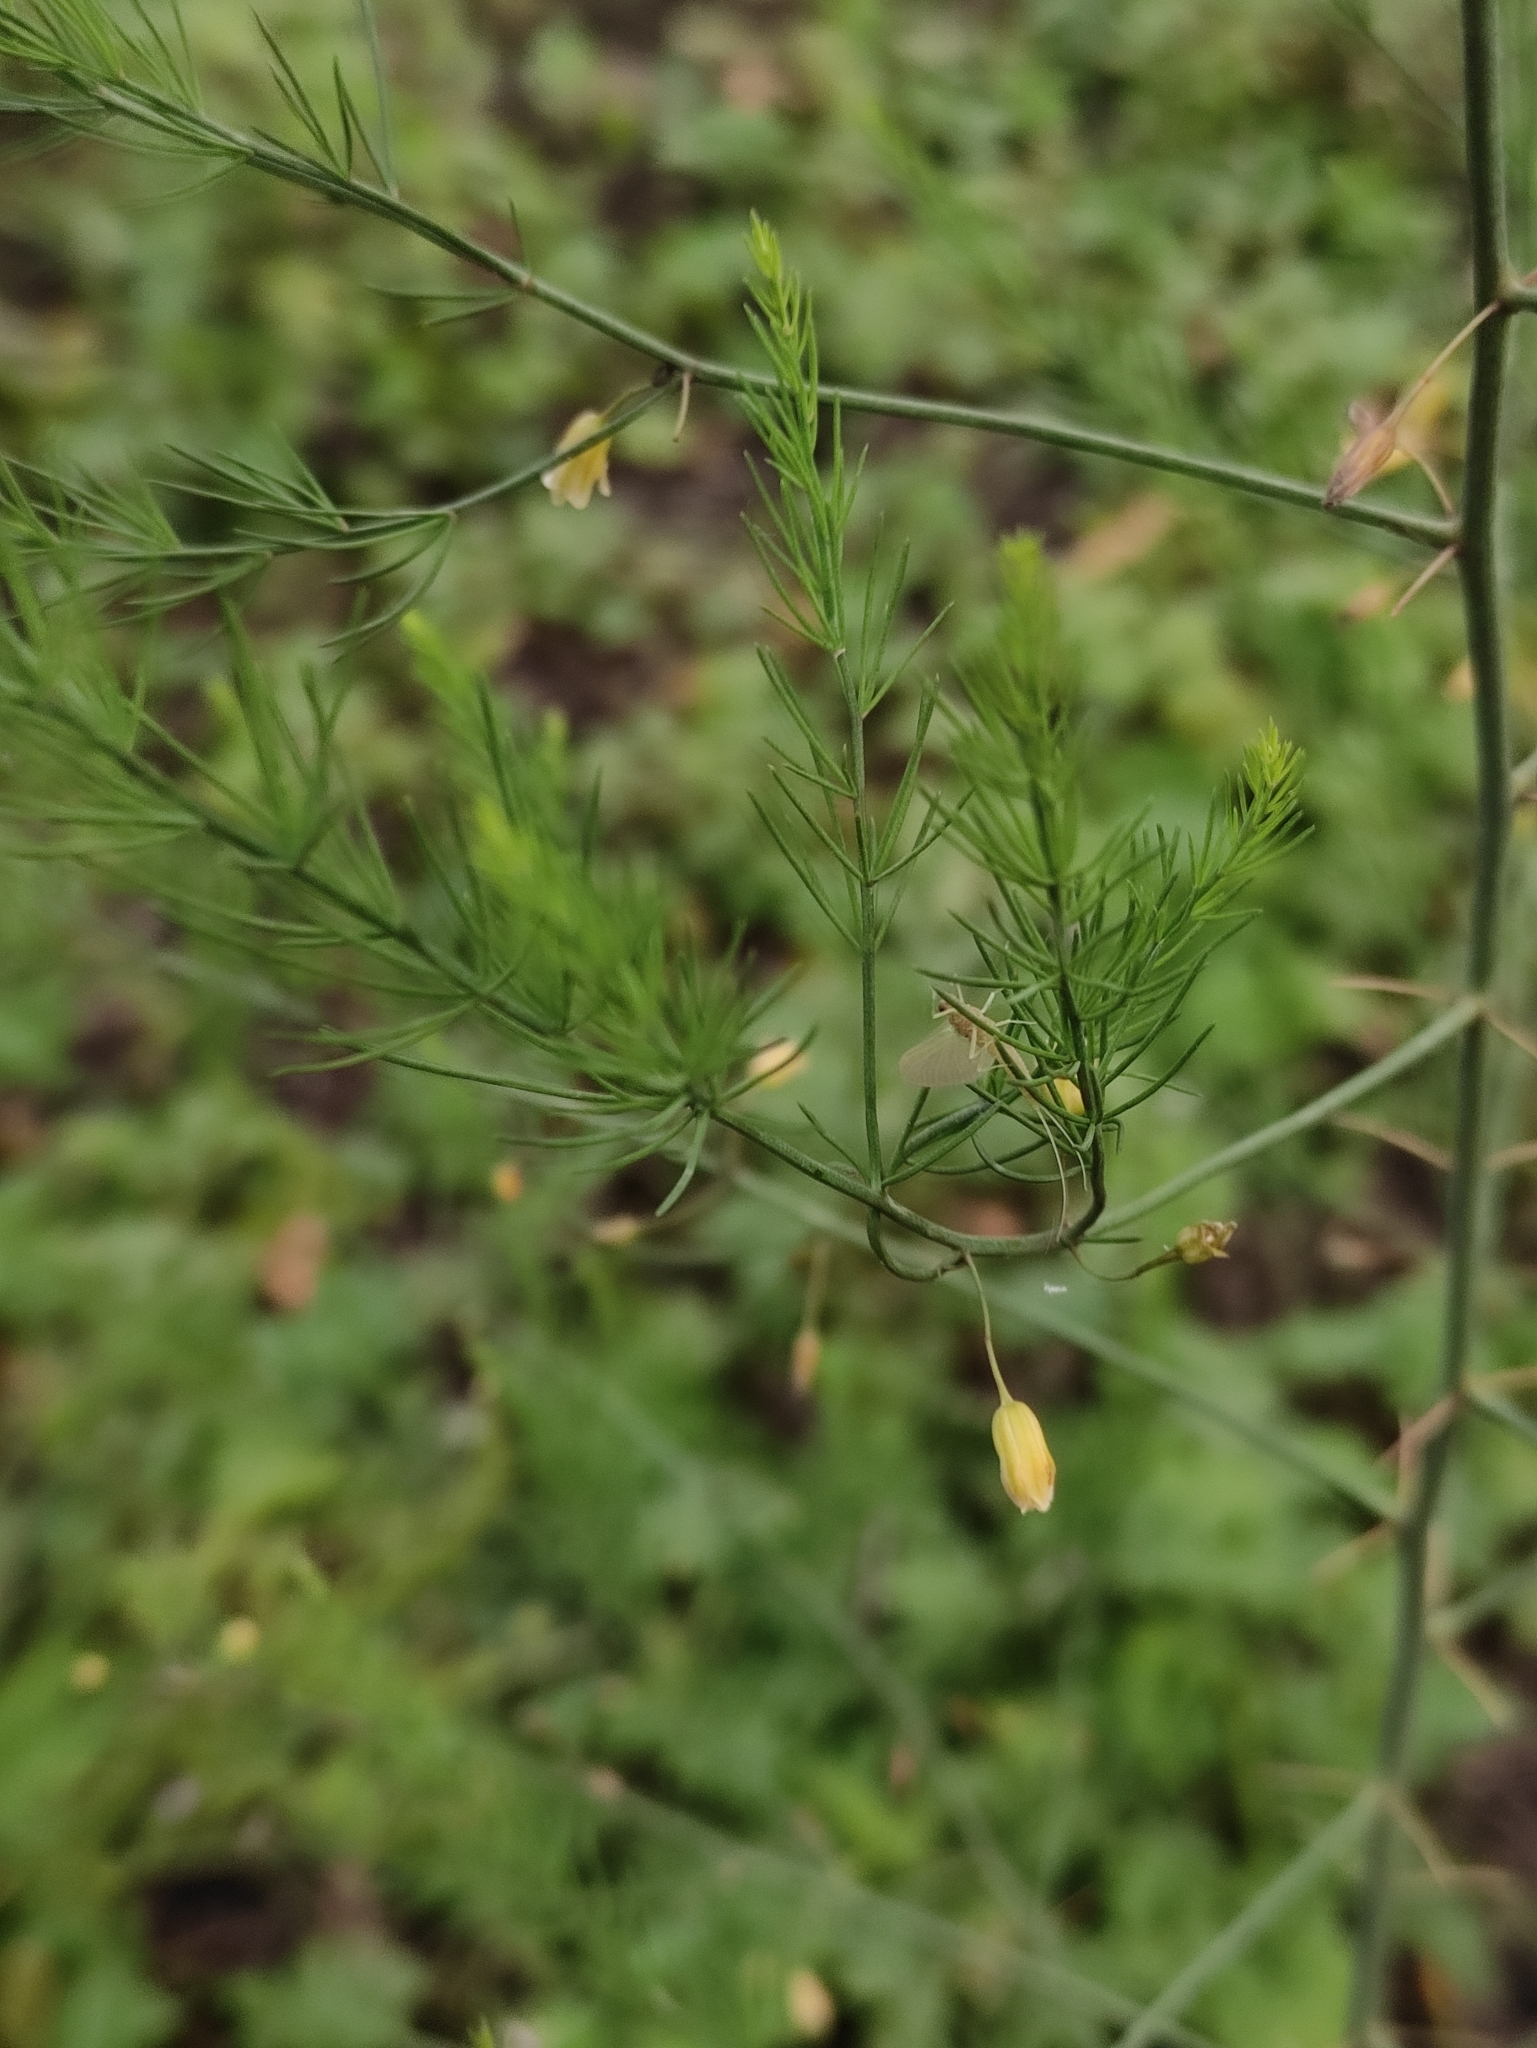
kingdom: Plantae
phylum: Tracheophyta
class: Liliopsida
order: Asparagales
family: Asparagaceae
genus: Asparagus
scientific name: Asparagus officinalis
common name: Garden asparagus
